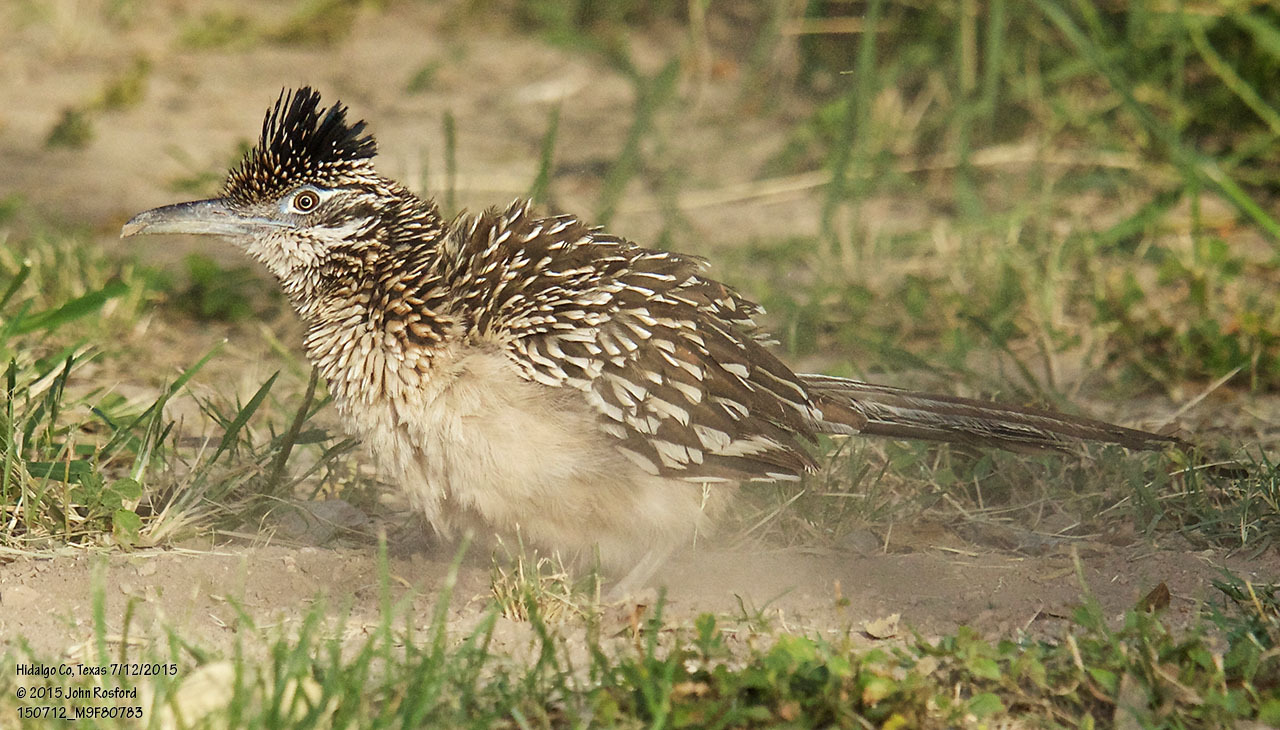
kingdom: Animalia
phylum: Chordata
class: Aves
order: Cuculiformes
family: Cuculidae
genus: Geococcyx
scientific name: Geococcyx californianus
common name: Greater roadrunner
